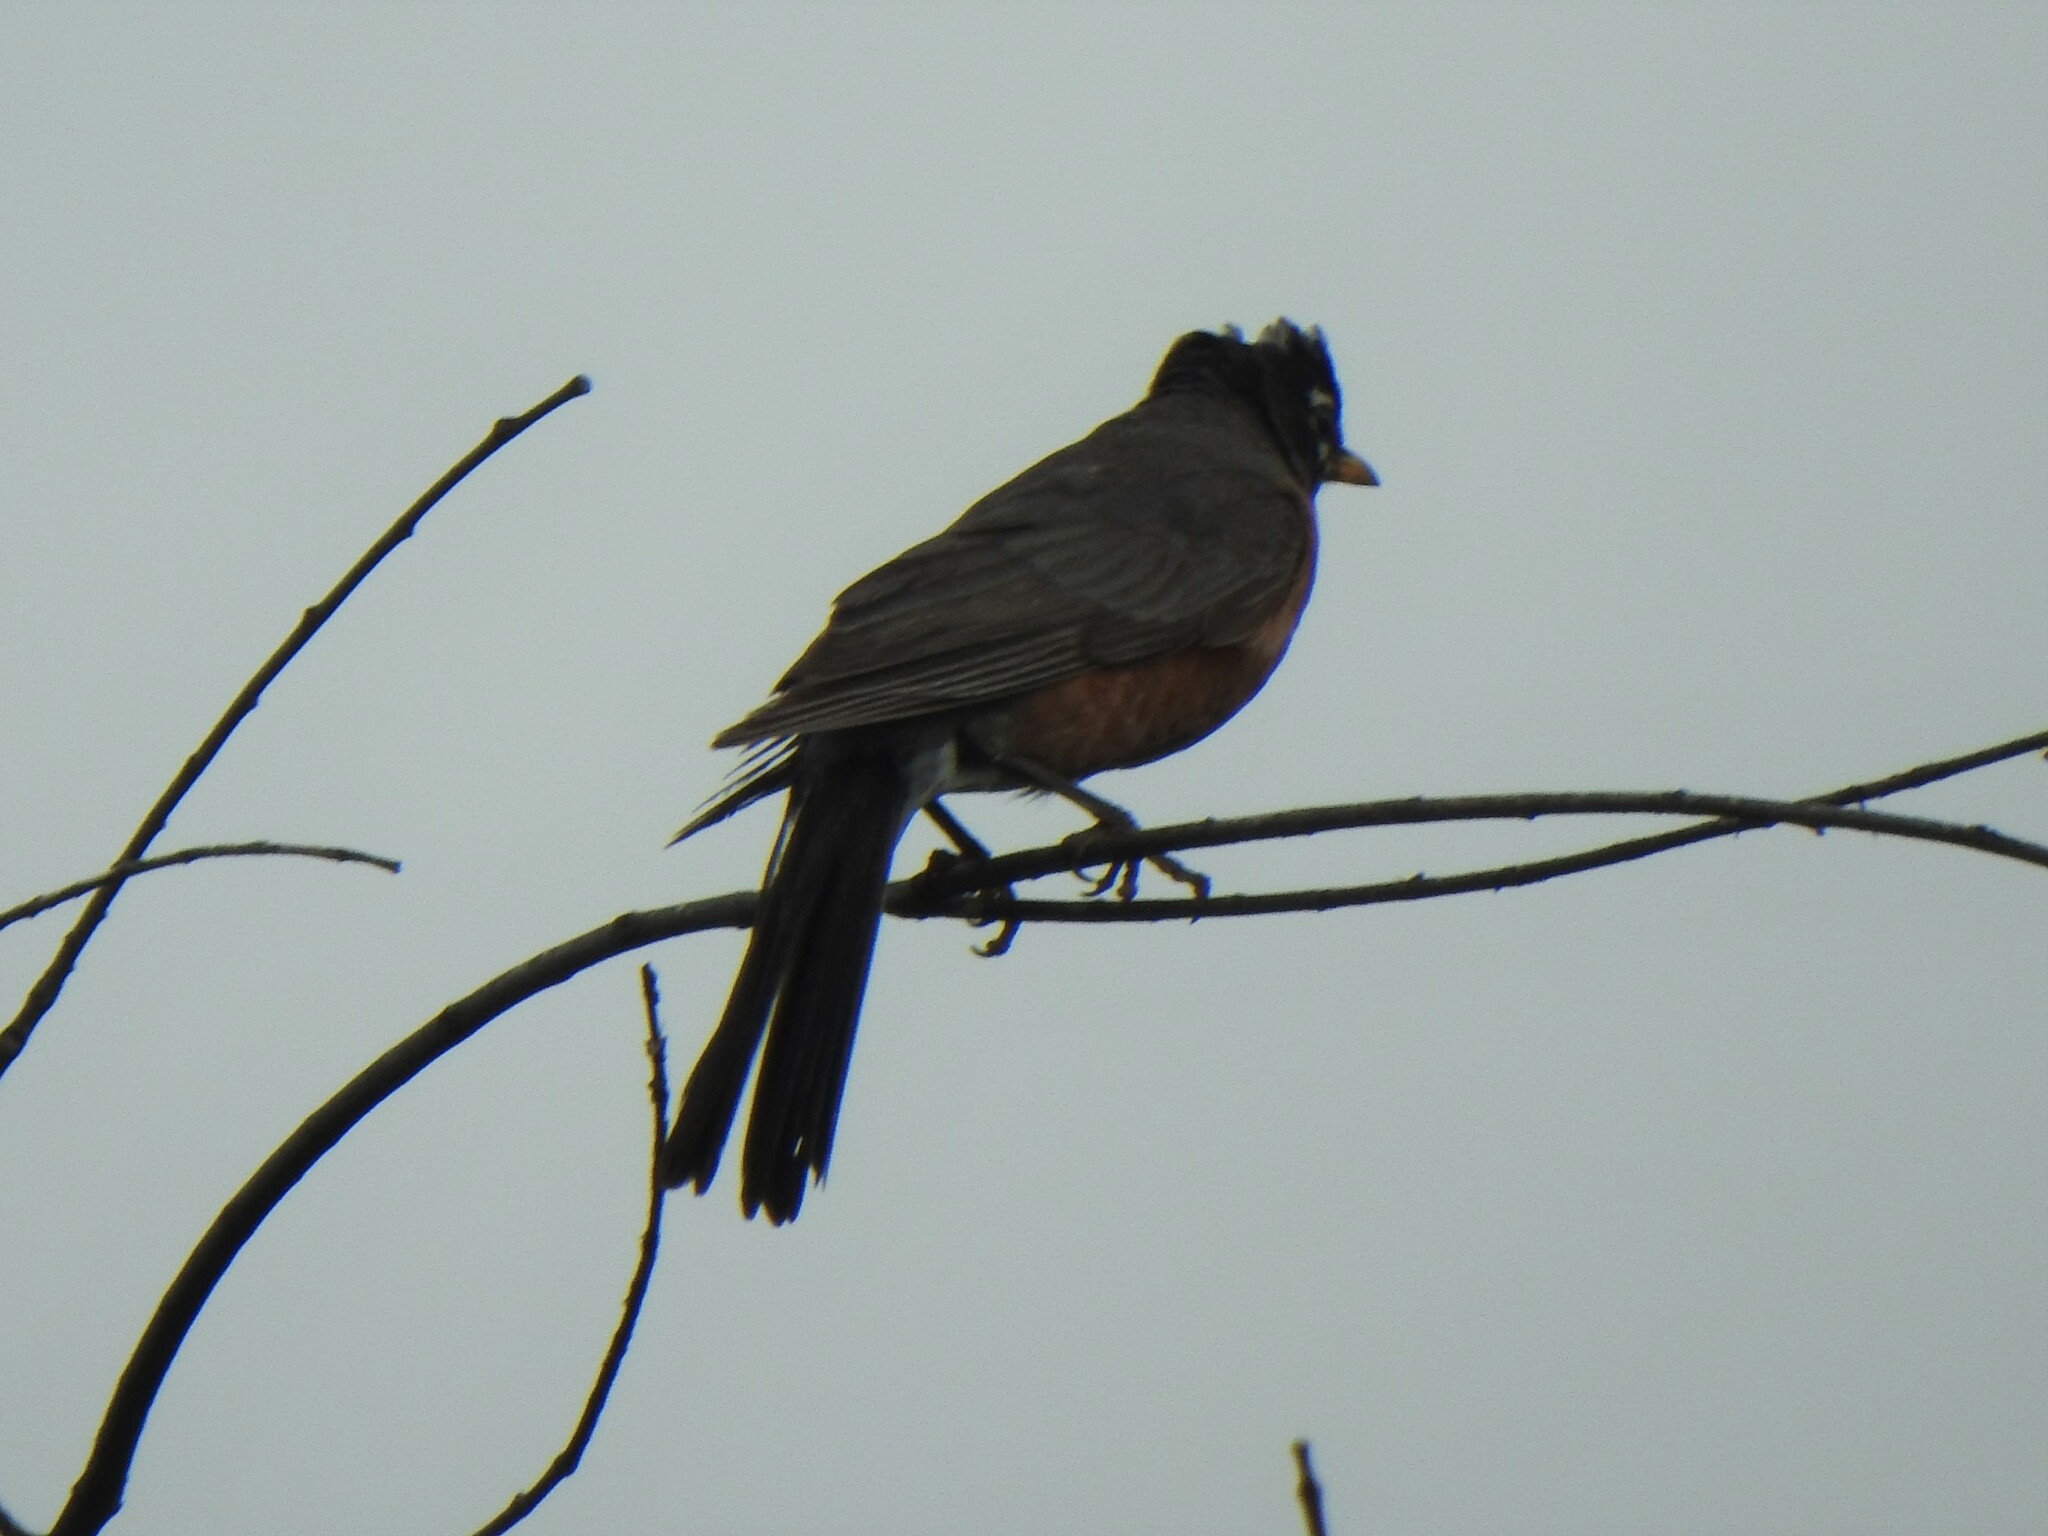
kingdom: Animalia
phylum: Chordata
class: Aves
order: Passeriformes
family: Turdidae
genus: Turdus
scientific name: Turdus migratorius
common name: American robin
